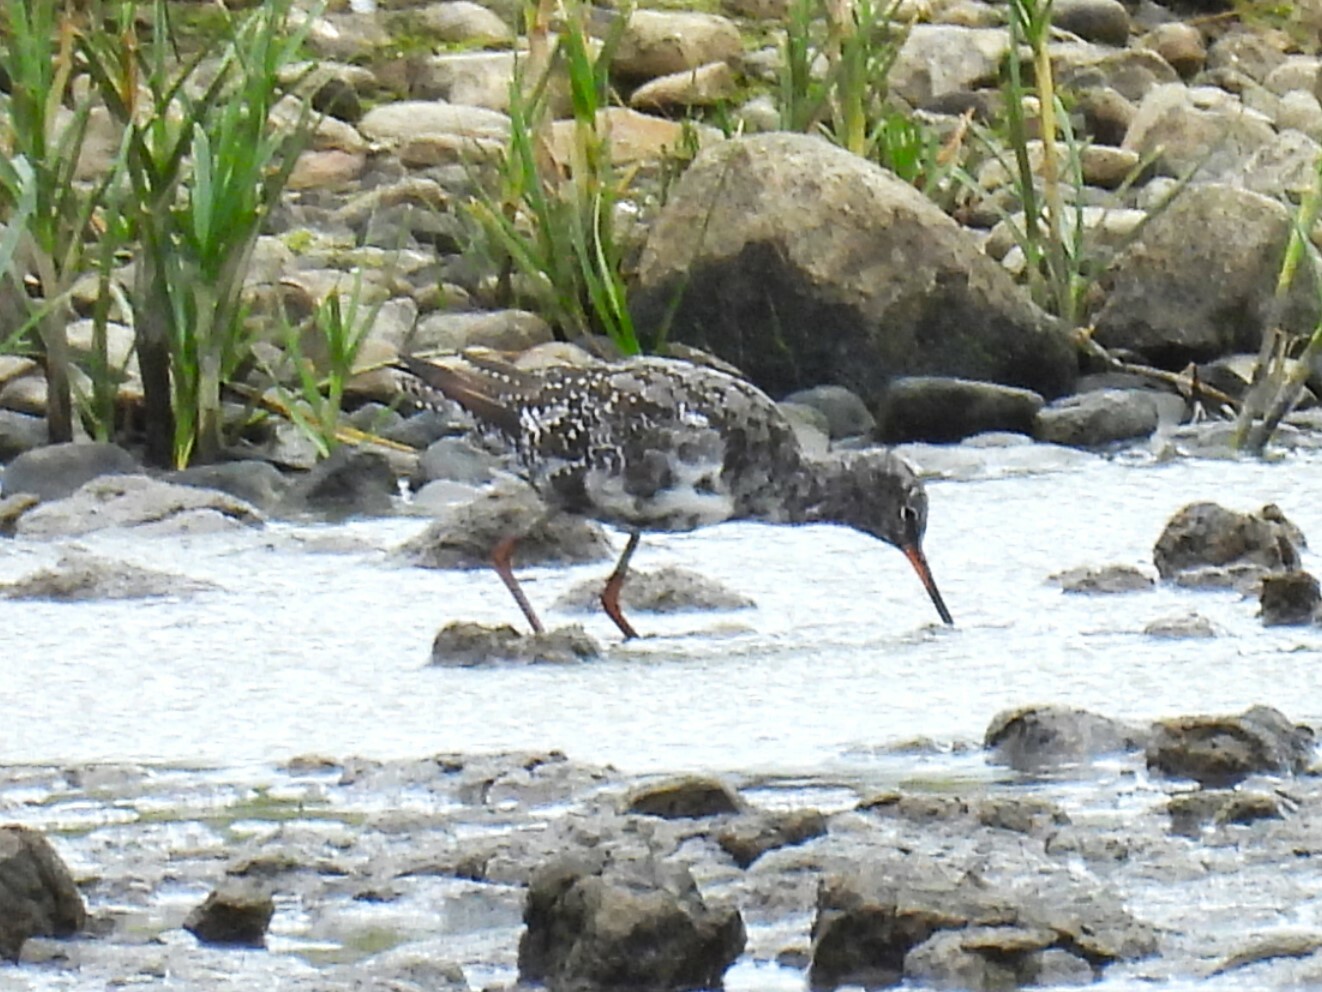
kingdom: Animalia
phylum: Chordata
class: Aves
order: Charadriiformes
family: Scolopacidae
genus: Tringa
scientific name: Tringa erythropus
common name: Spotted redshank
